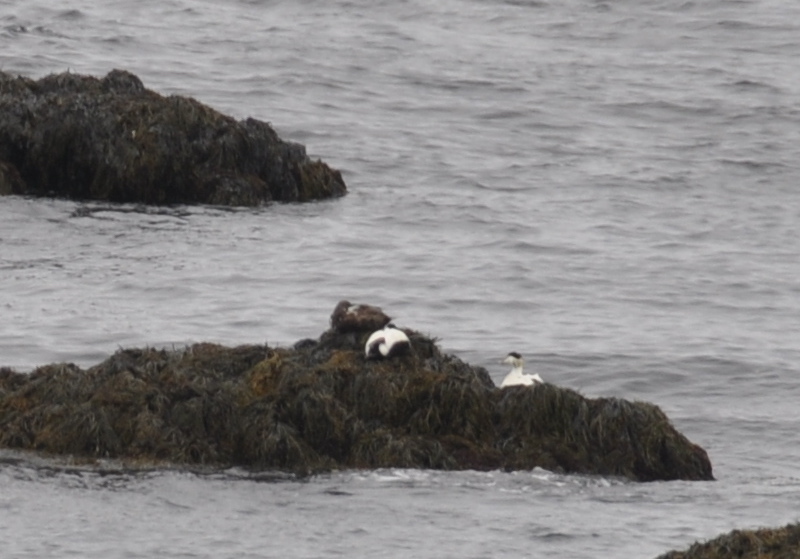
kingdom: Animalia
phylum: Chordata
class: Aves
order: Anseriformes
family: Anatidae
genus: Somateria
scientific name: Somateria mollissima
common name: Common eider
